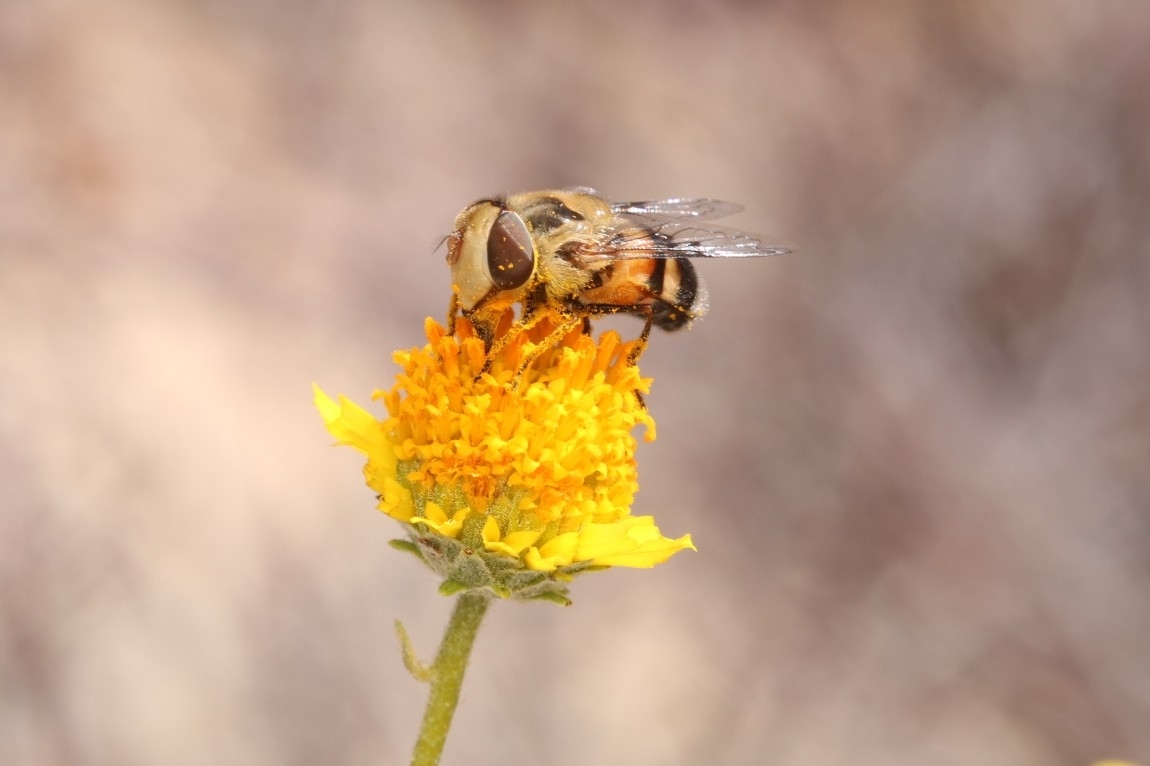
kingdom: Animalia
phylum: Arthropoda
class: Insecta
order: Diptera
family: Syrphidae
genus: Copestylum
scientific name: Copestylum apiciferum
